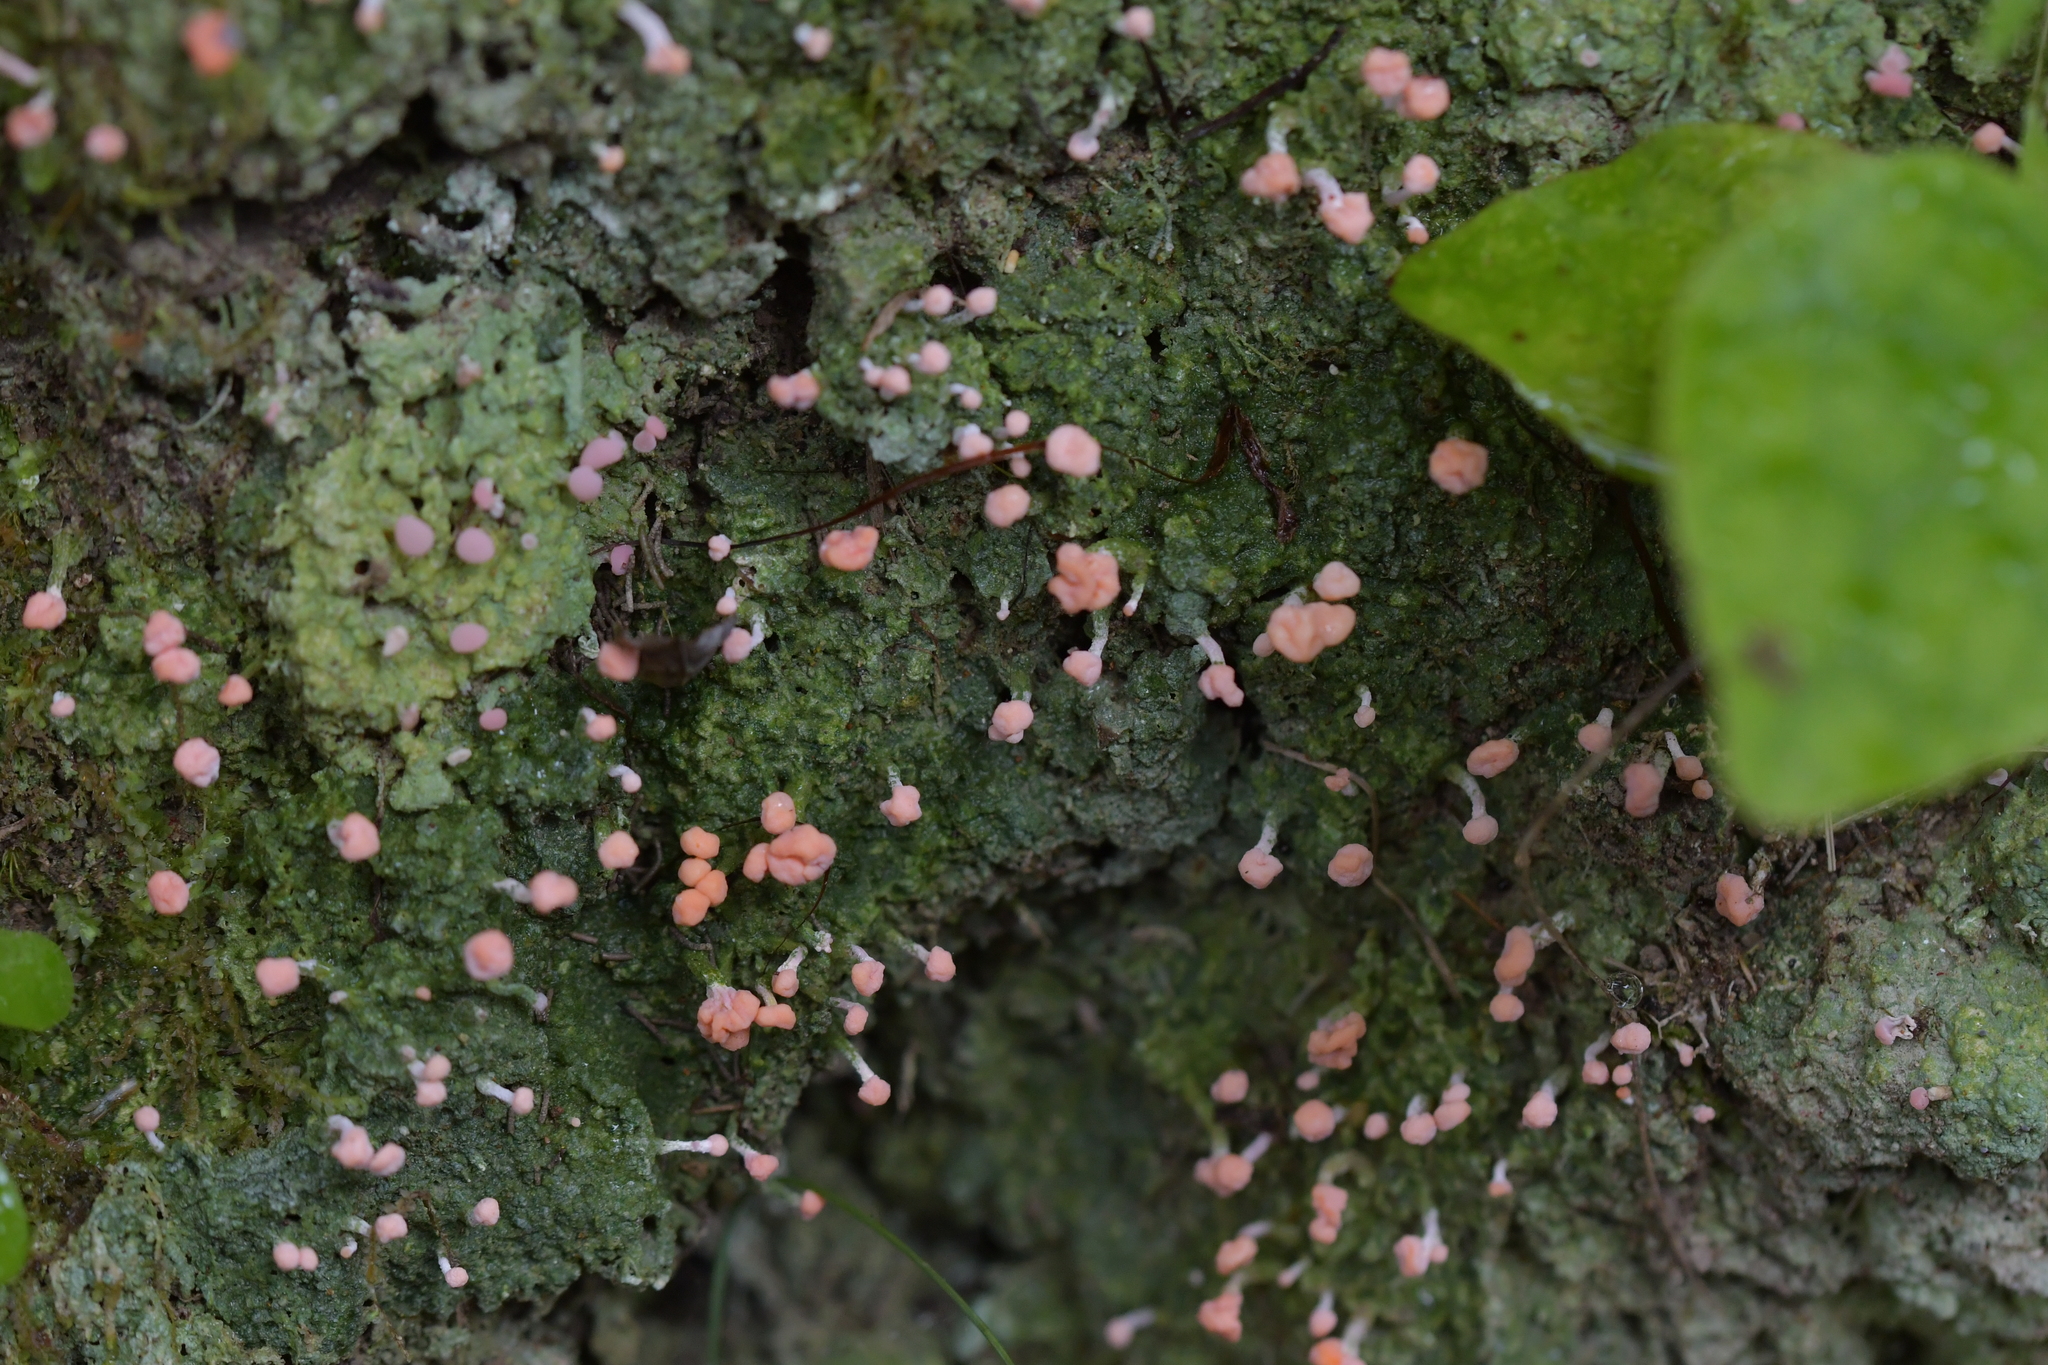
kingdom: Fungi
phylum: Ascomycota
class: Lecanoromycetes
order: Pertusariales
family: Icmadophilaceae
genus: Dibaeis
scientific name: Dibaeis arcuata
